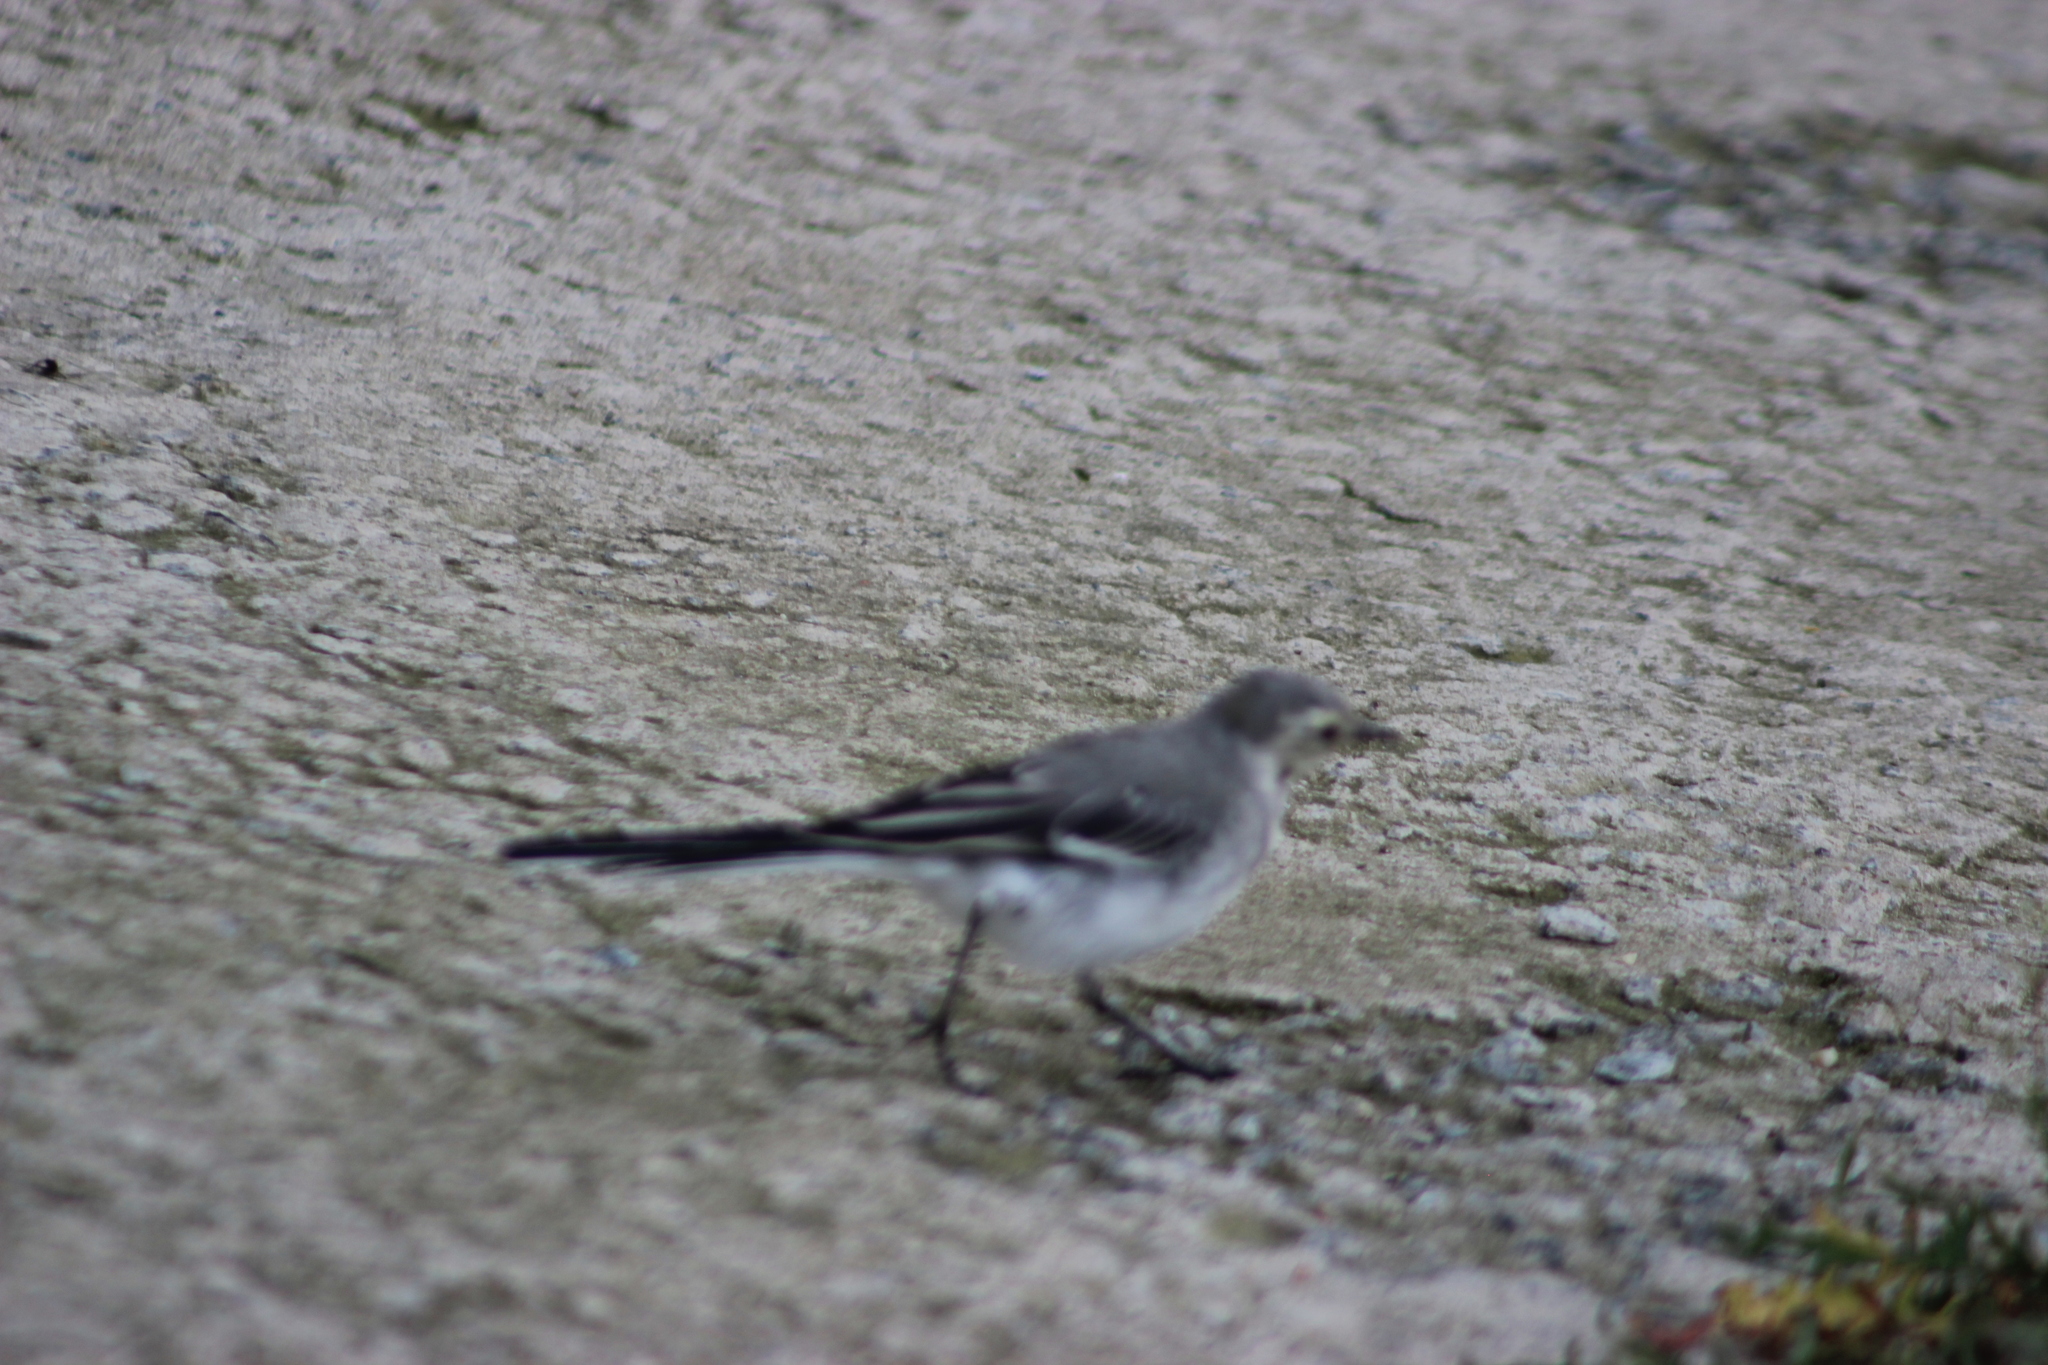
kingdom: Animalia
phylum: Chordata
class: Aves
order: Passeriformes
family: Motacillidae
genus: Motacilla
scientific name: Motacilla alba
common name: White wagtail
